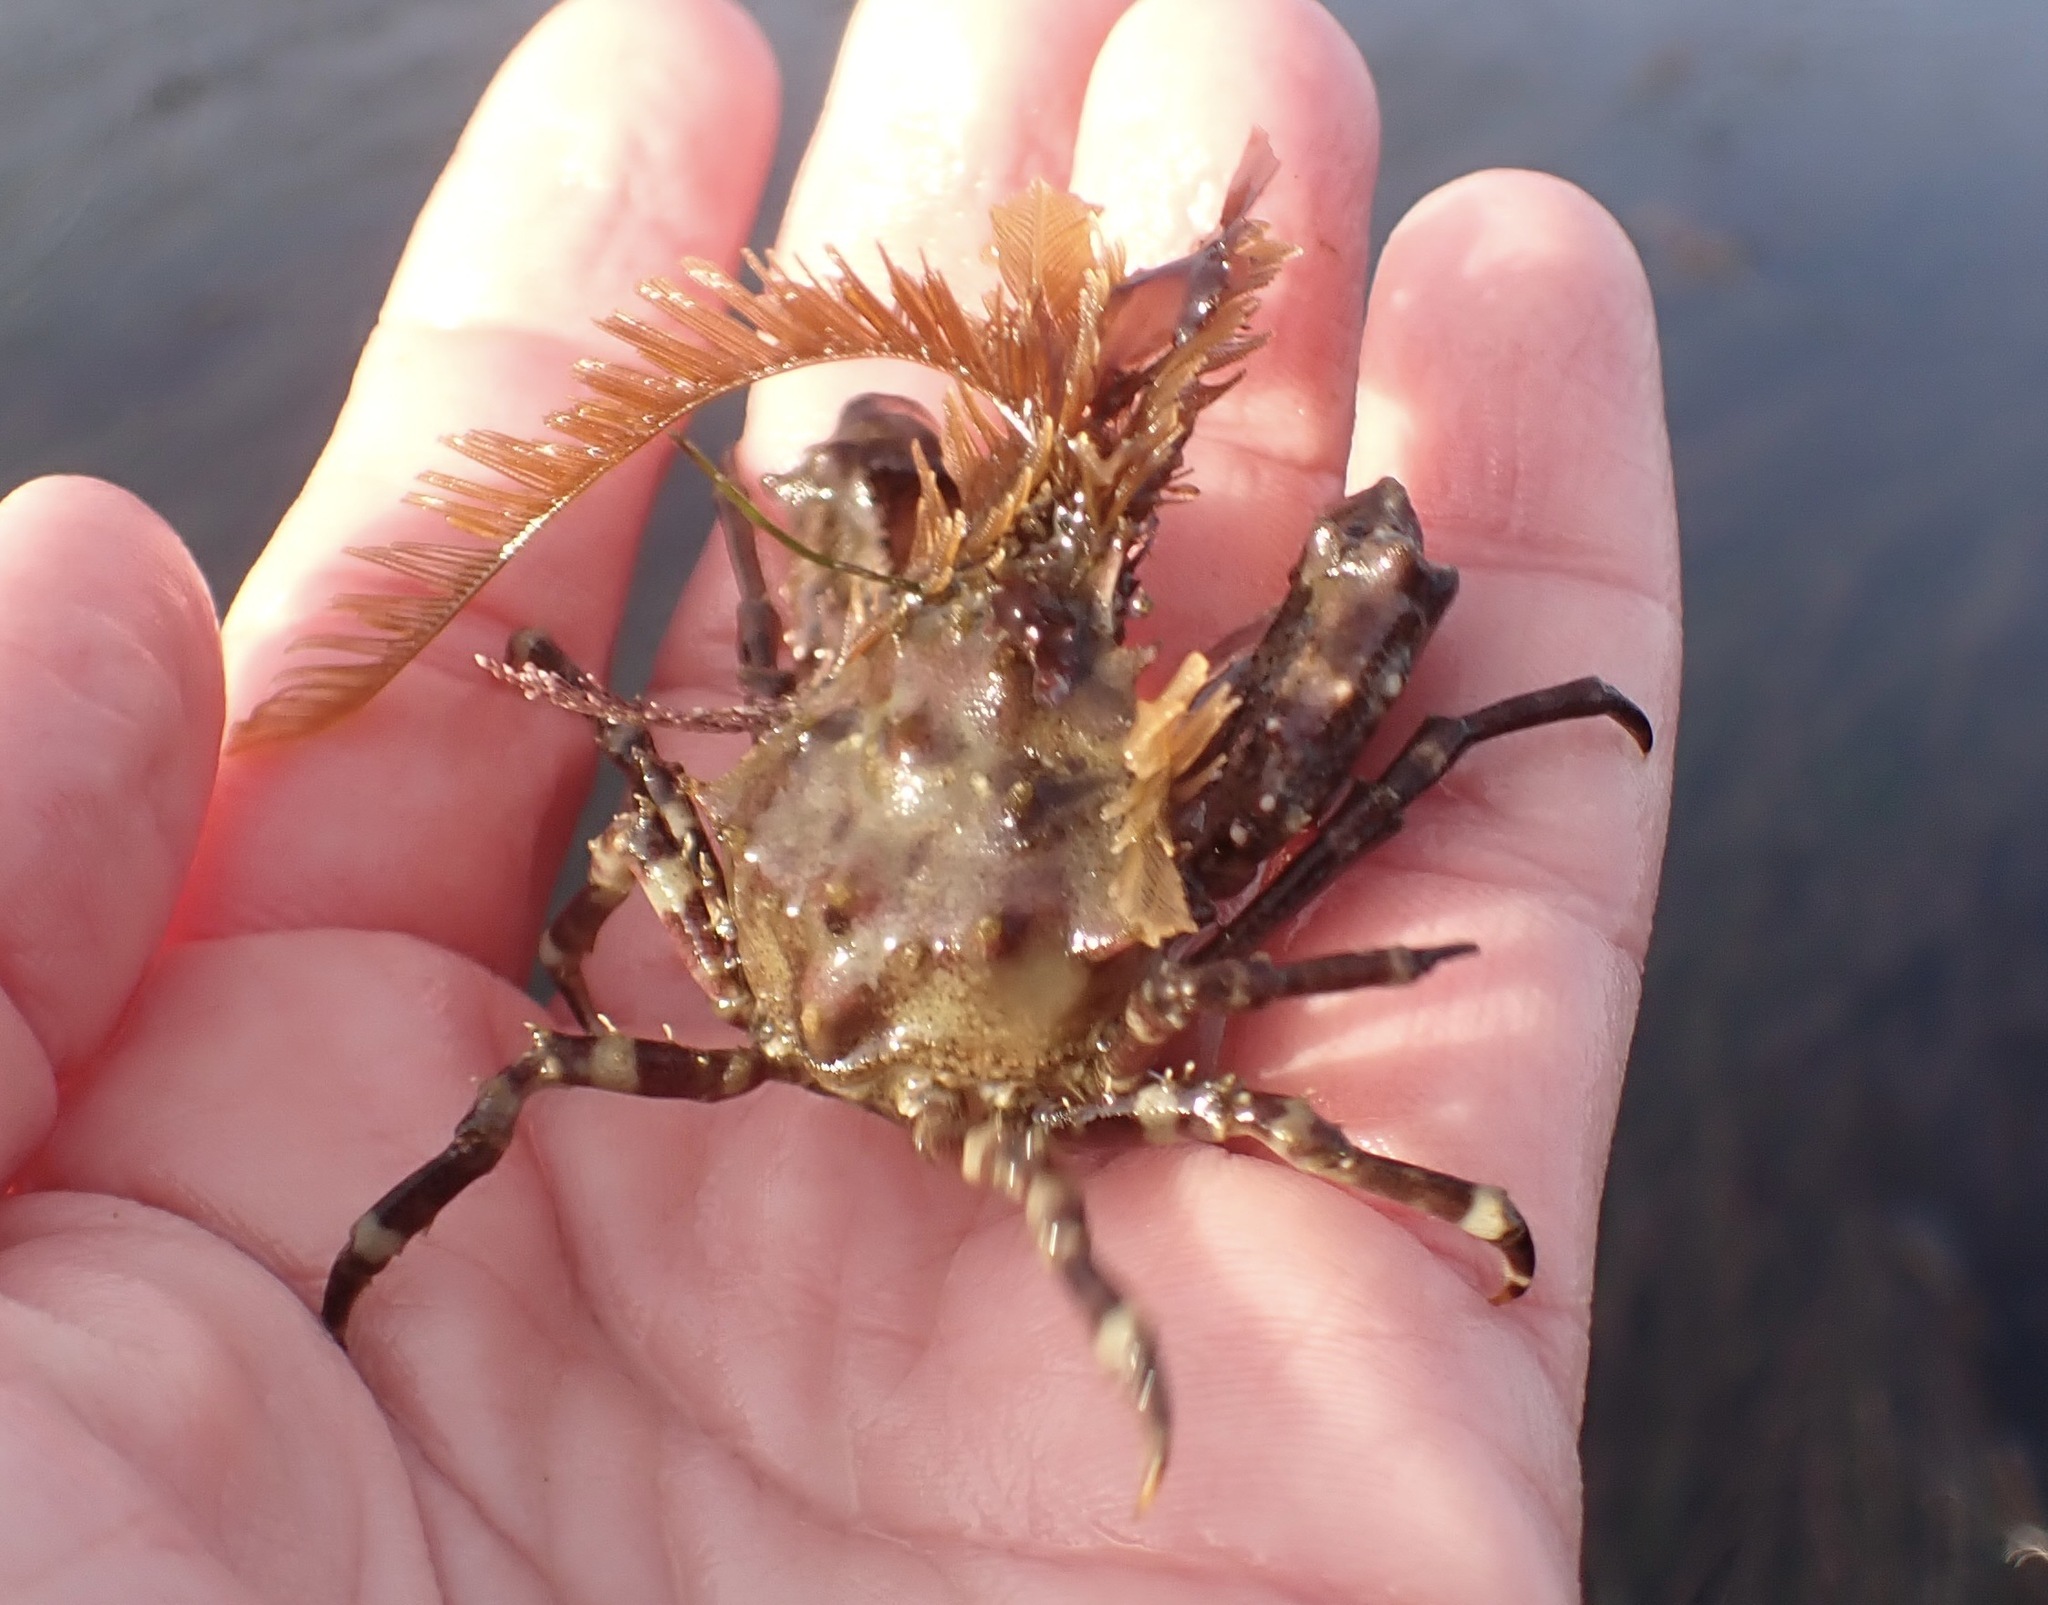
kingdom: Animalia
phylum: Arthropoda
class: Malacostraca
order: Decapoda
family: Epialtidae
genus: Pugettia
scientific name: Pugettia richii
